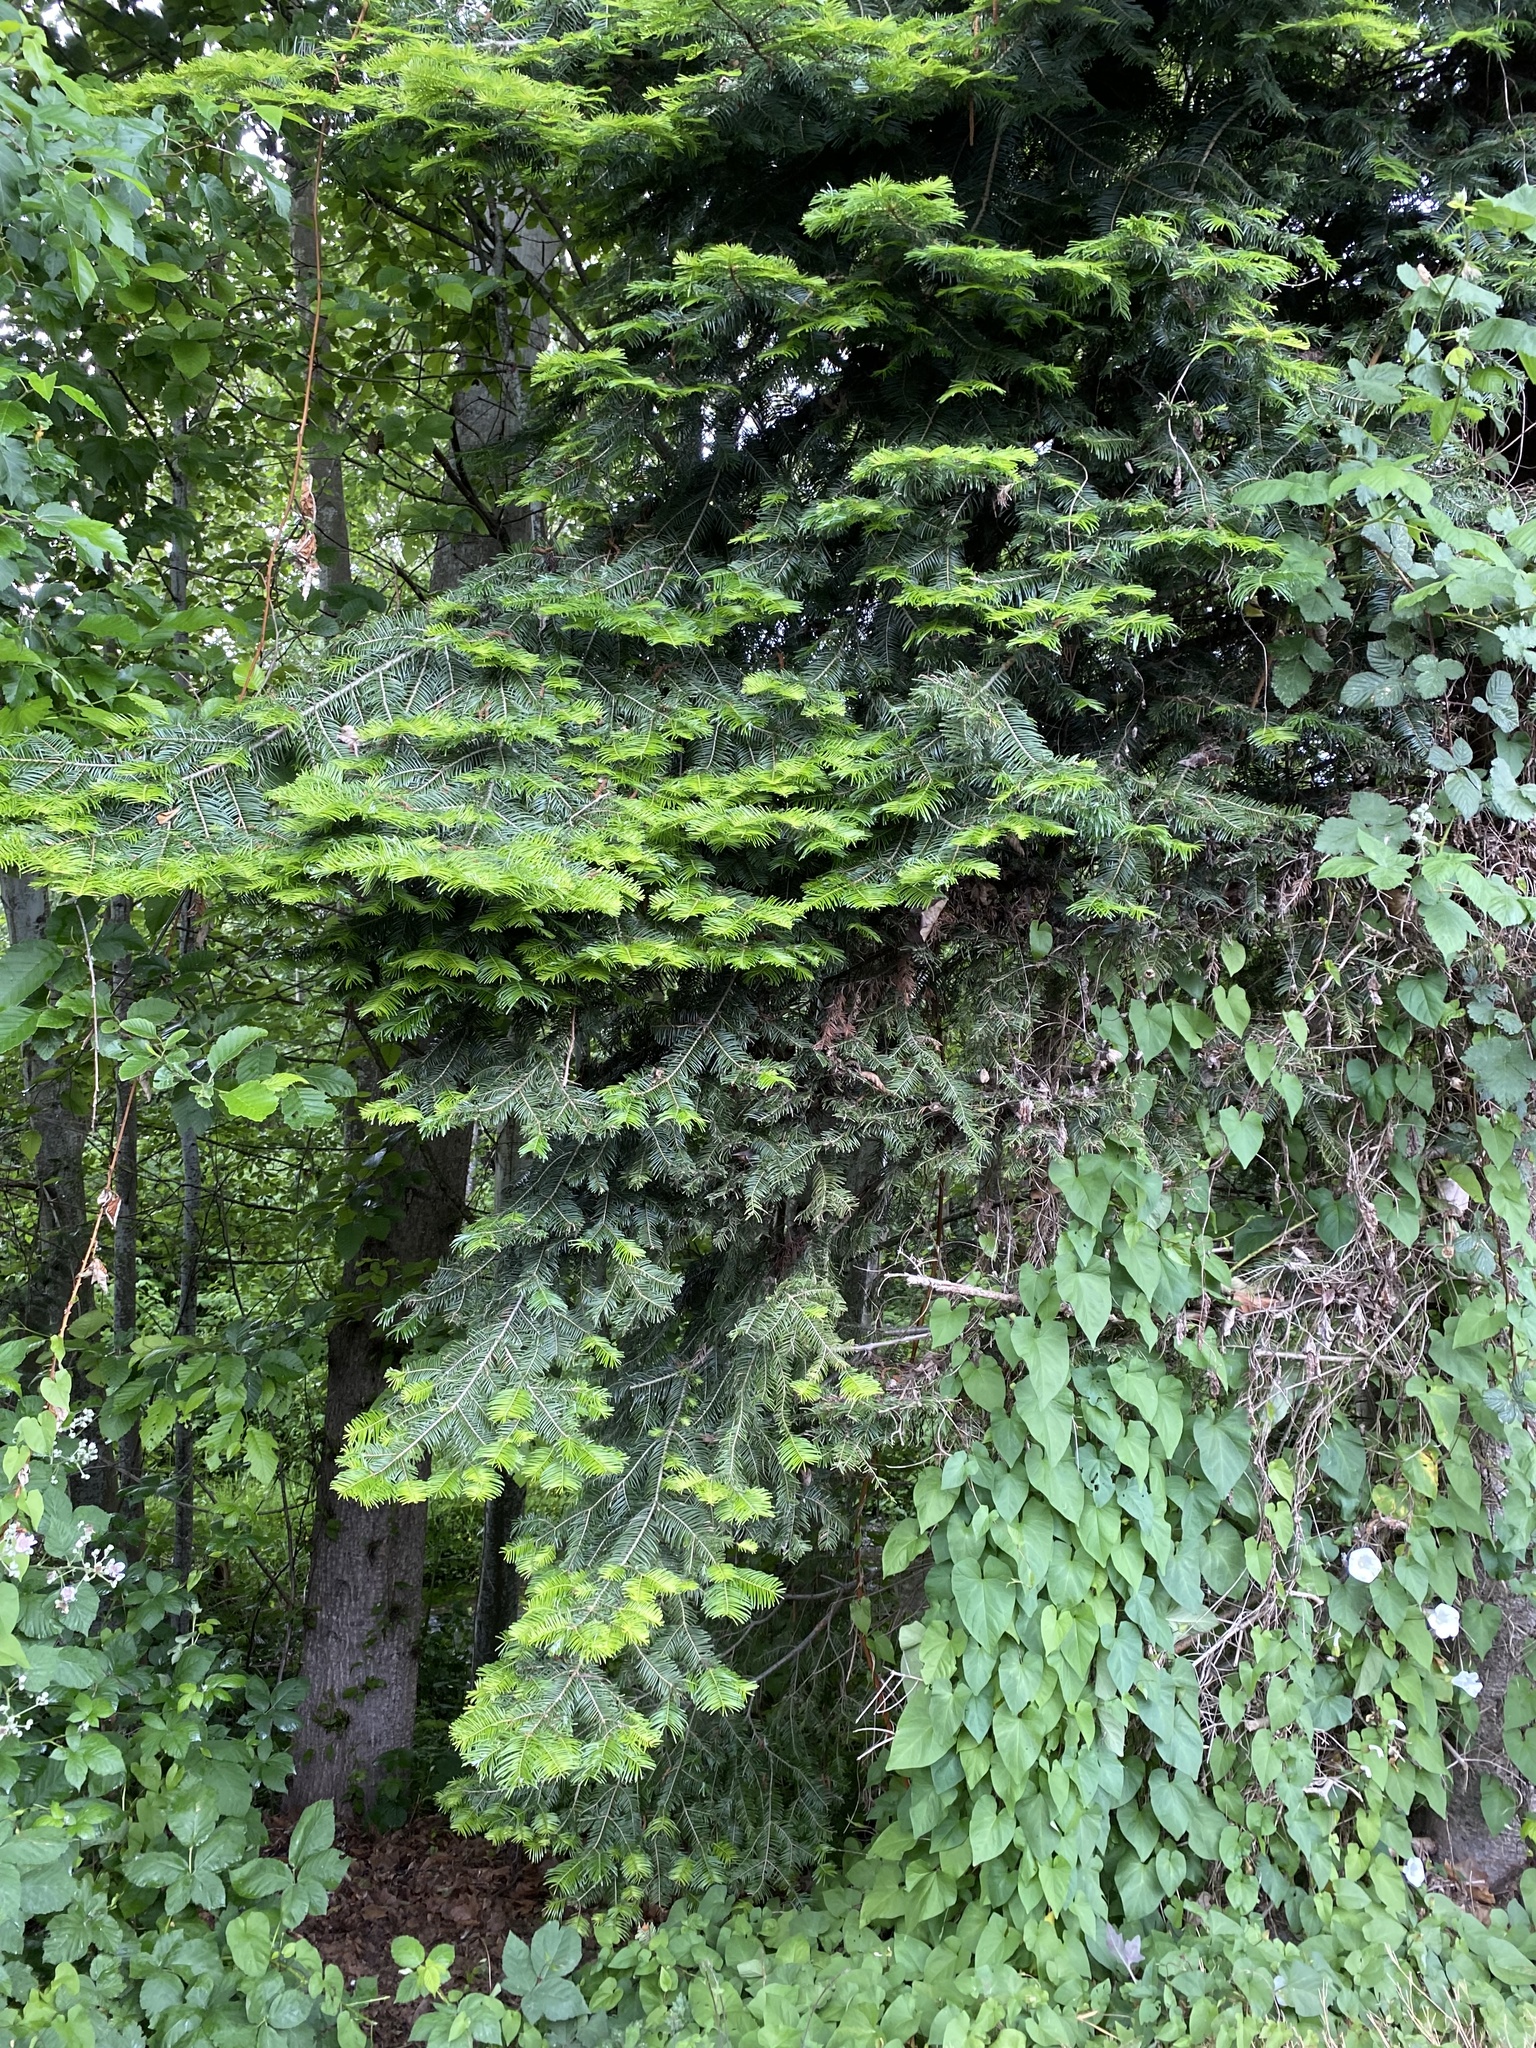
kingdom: Plantae
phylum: Tracheophyta
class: Pinopsida
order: Pinales
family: Pinaceae
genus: Abies
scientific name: Abies grandis
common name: Giant fir
